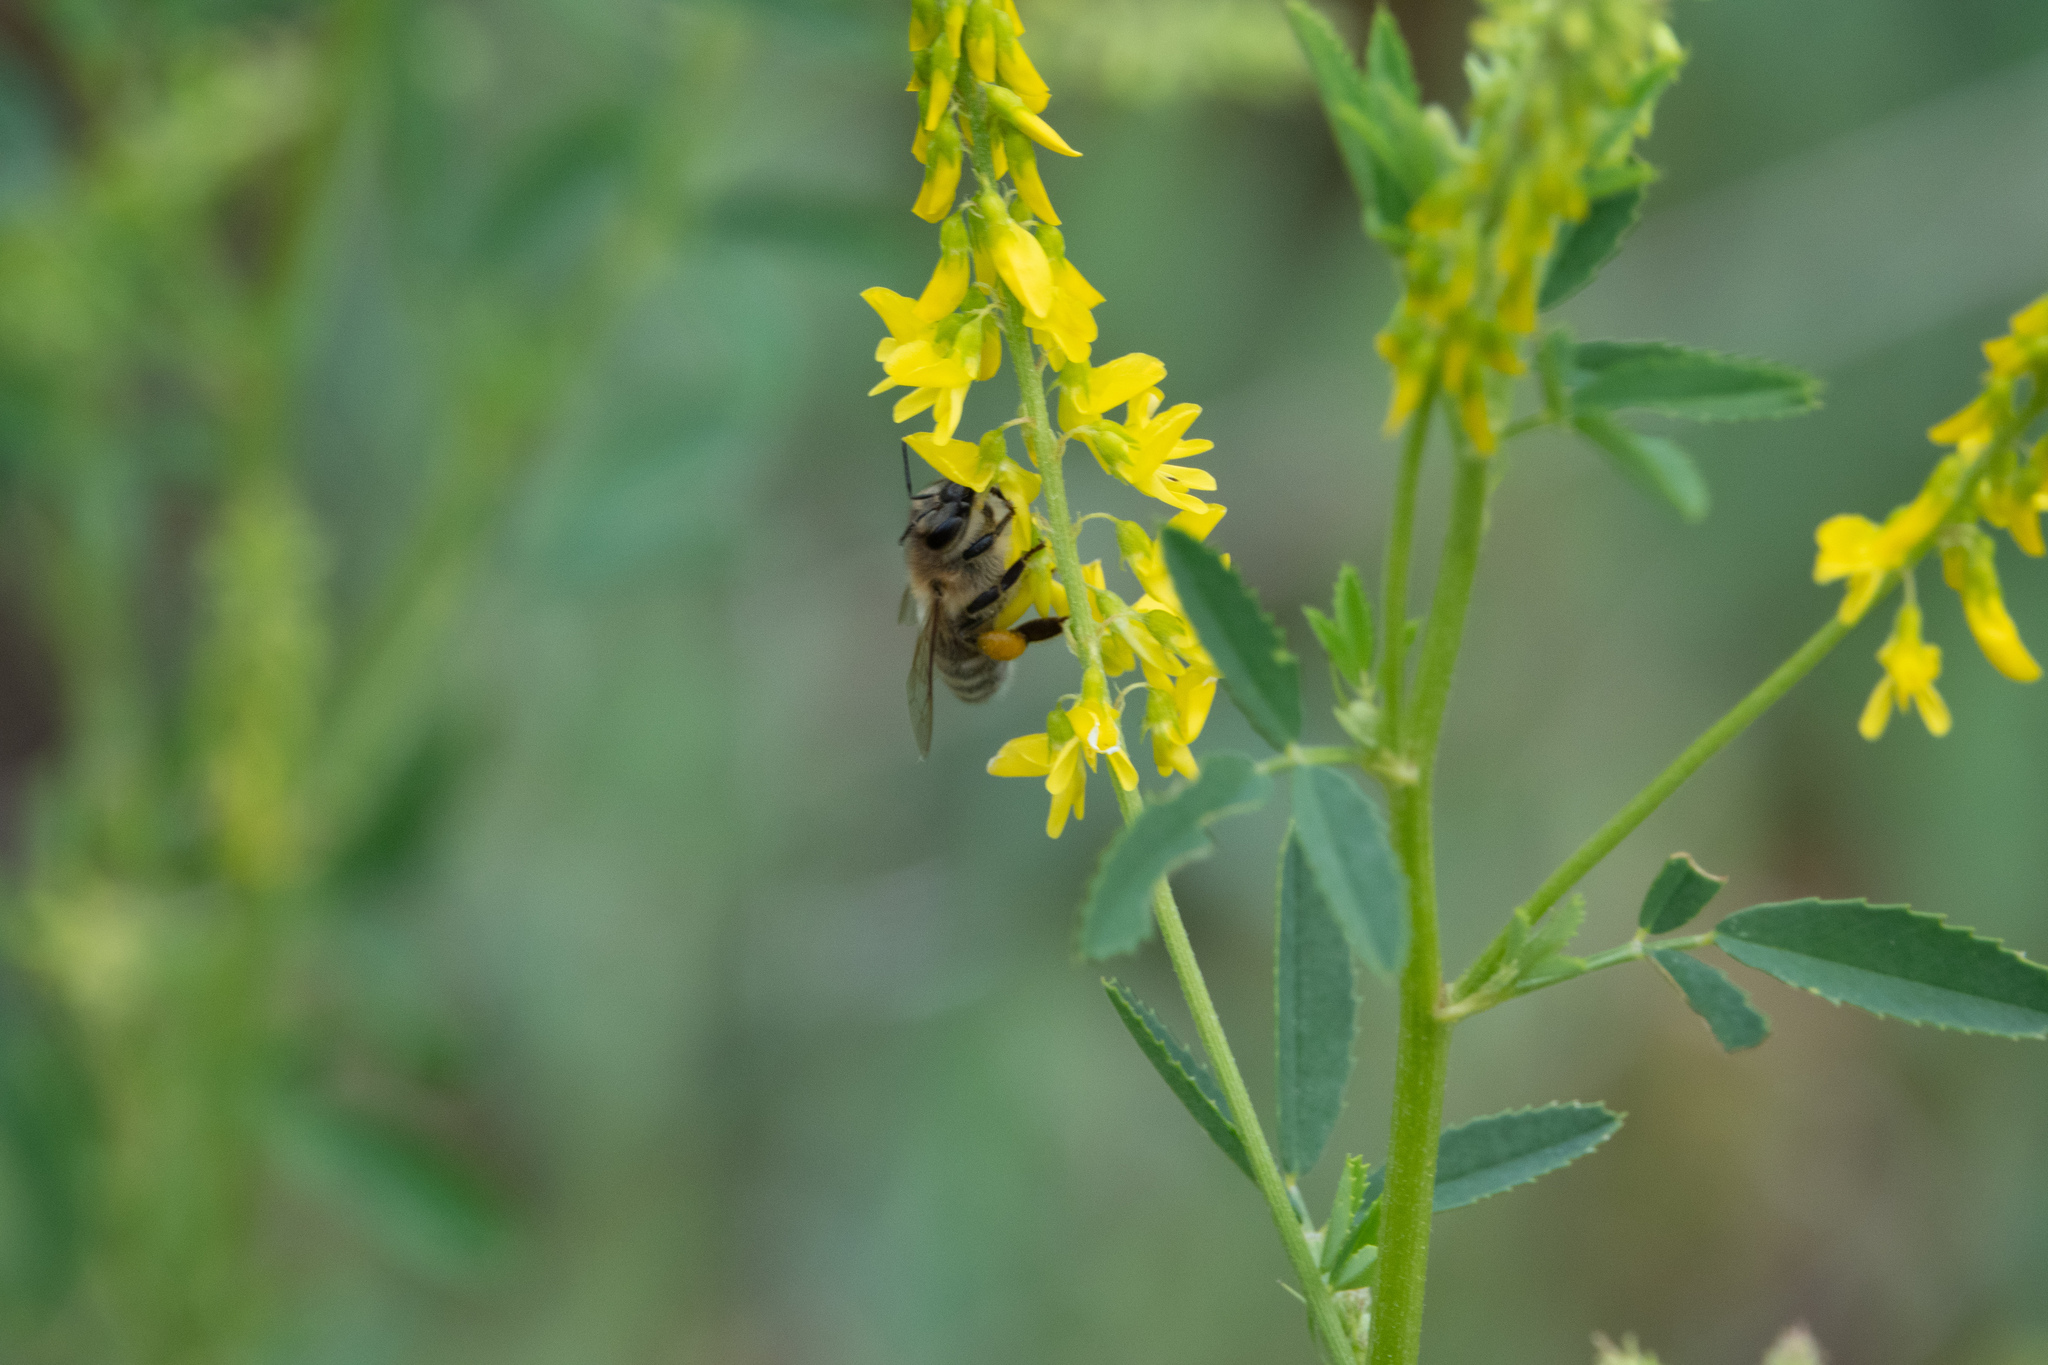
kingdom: Animalia
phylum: Arthropoda
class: Insecta
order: Hymenoptera
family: Apidae
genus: Apis
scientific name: Apis mellifera
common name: Honey bee
